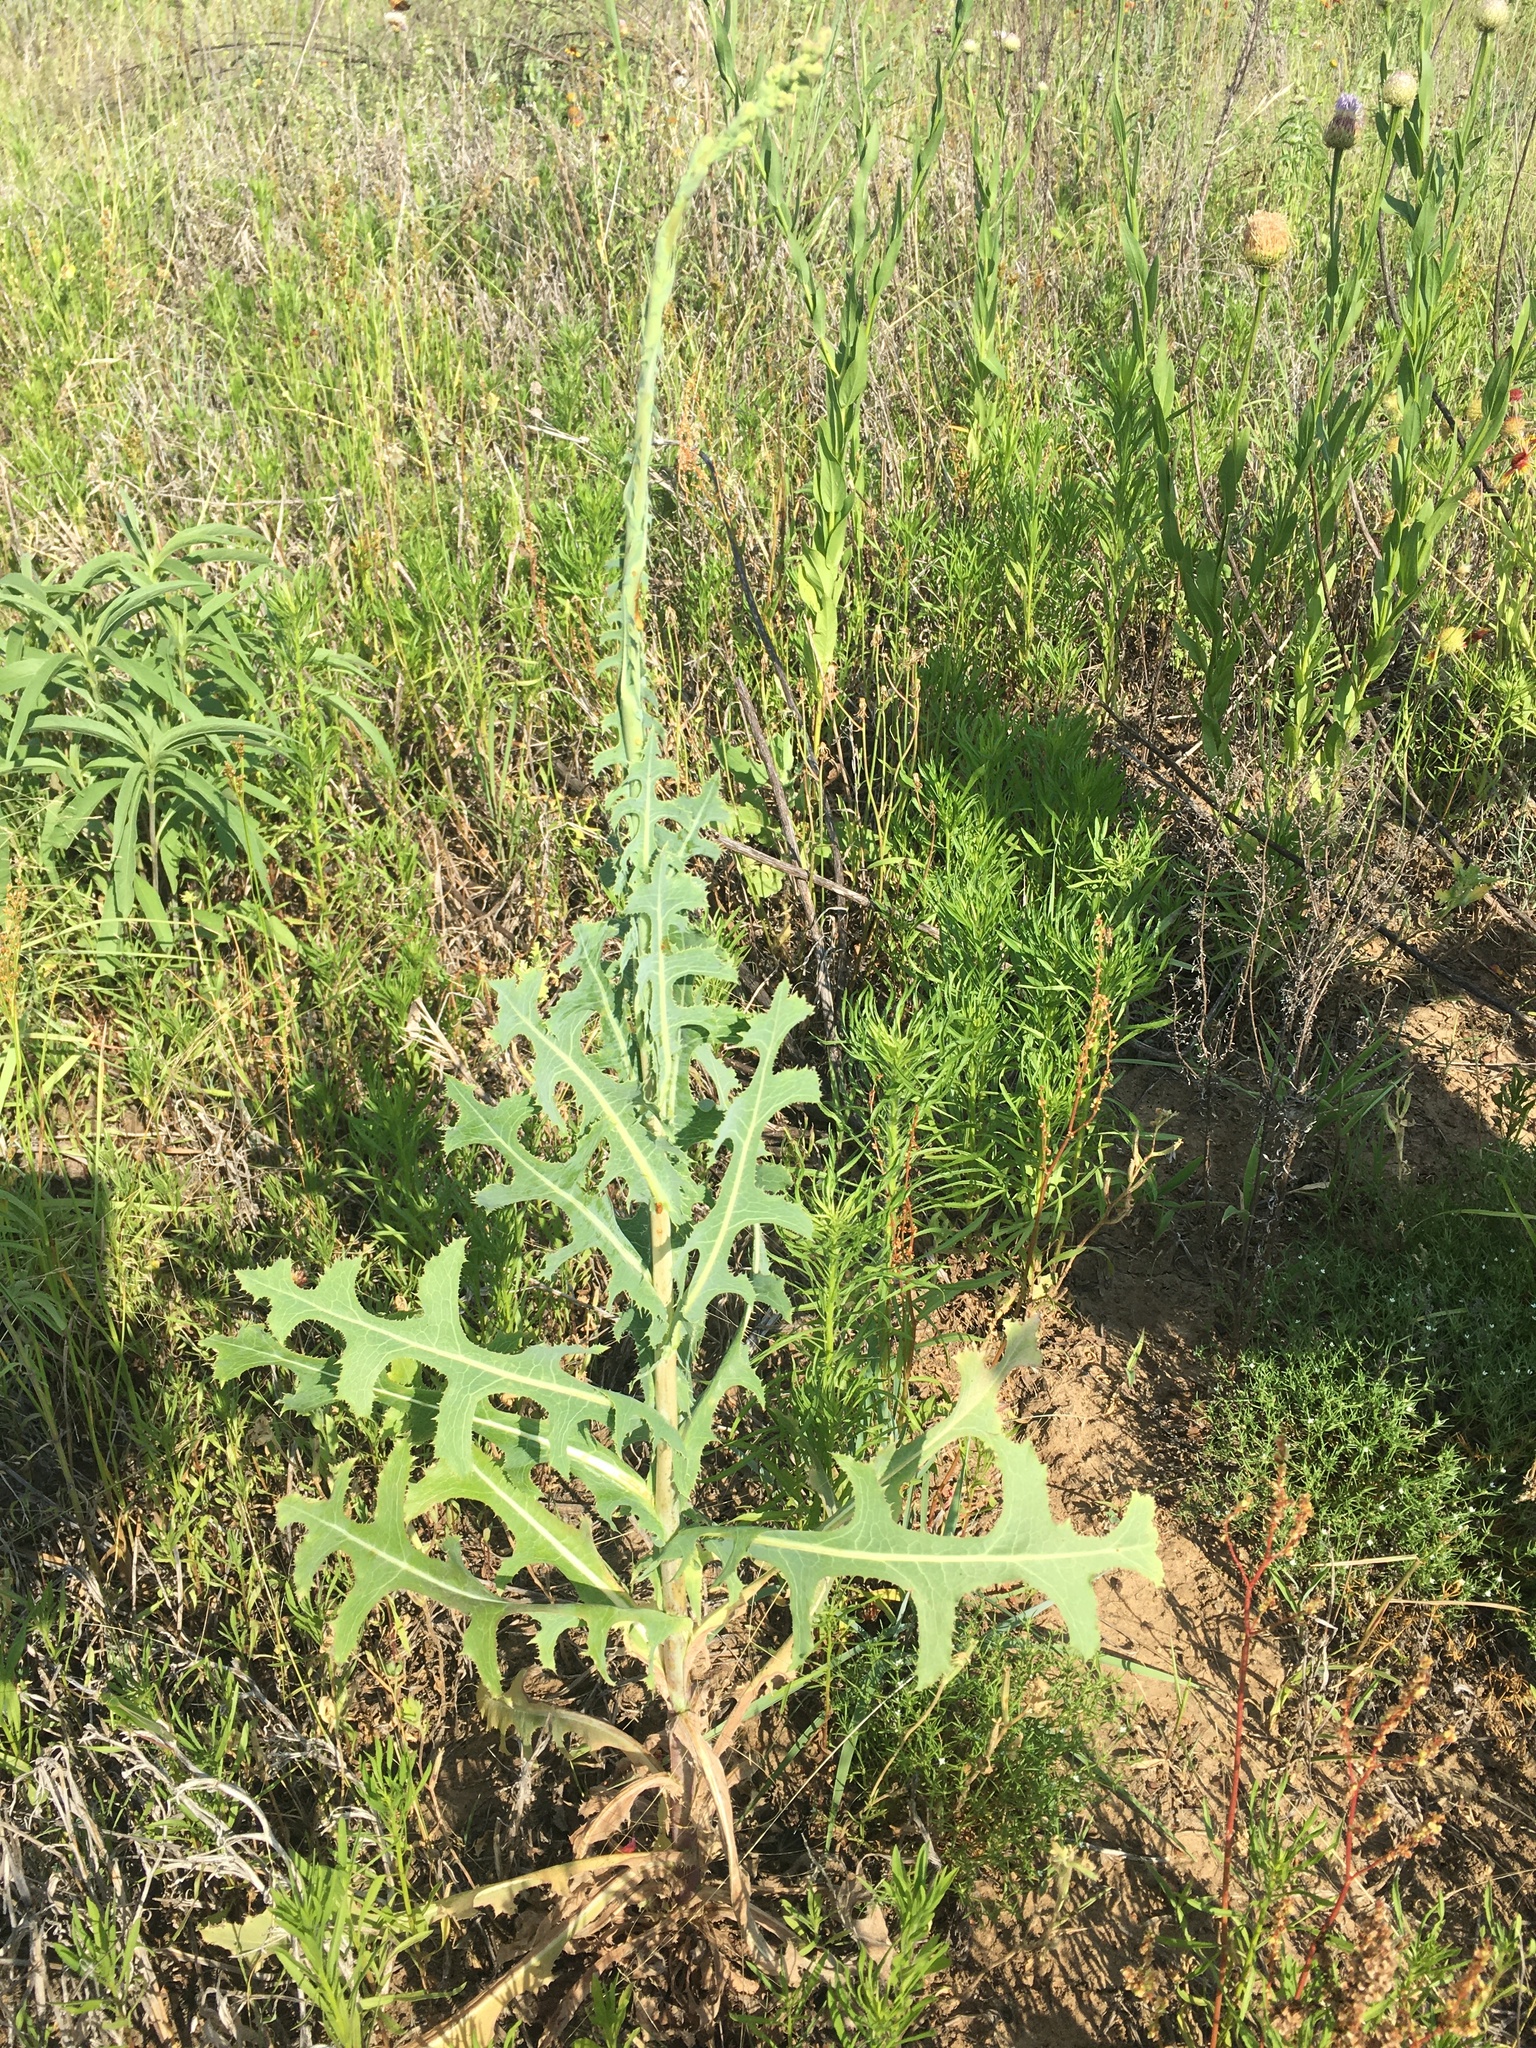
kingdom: Plantae
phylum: Tracheophyta
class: Magnoliopsida
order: Asterales
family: Asteraceae
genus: Lactuca
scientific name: Lactuca serriola
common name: Prickly lettuce
